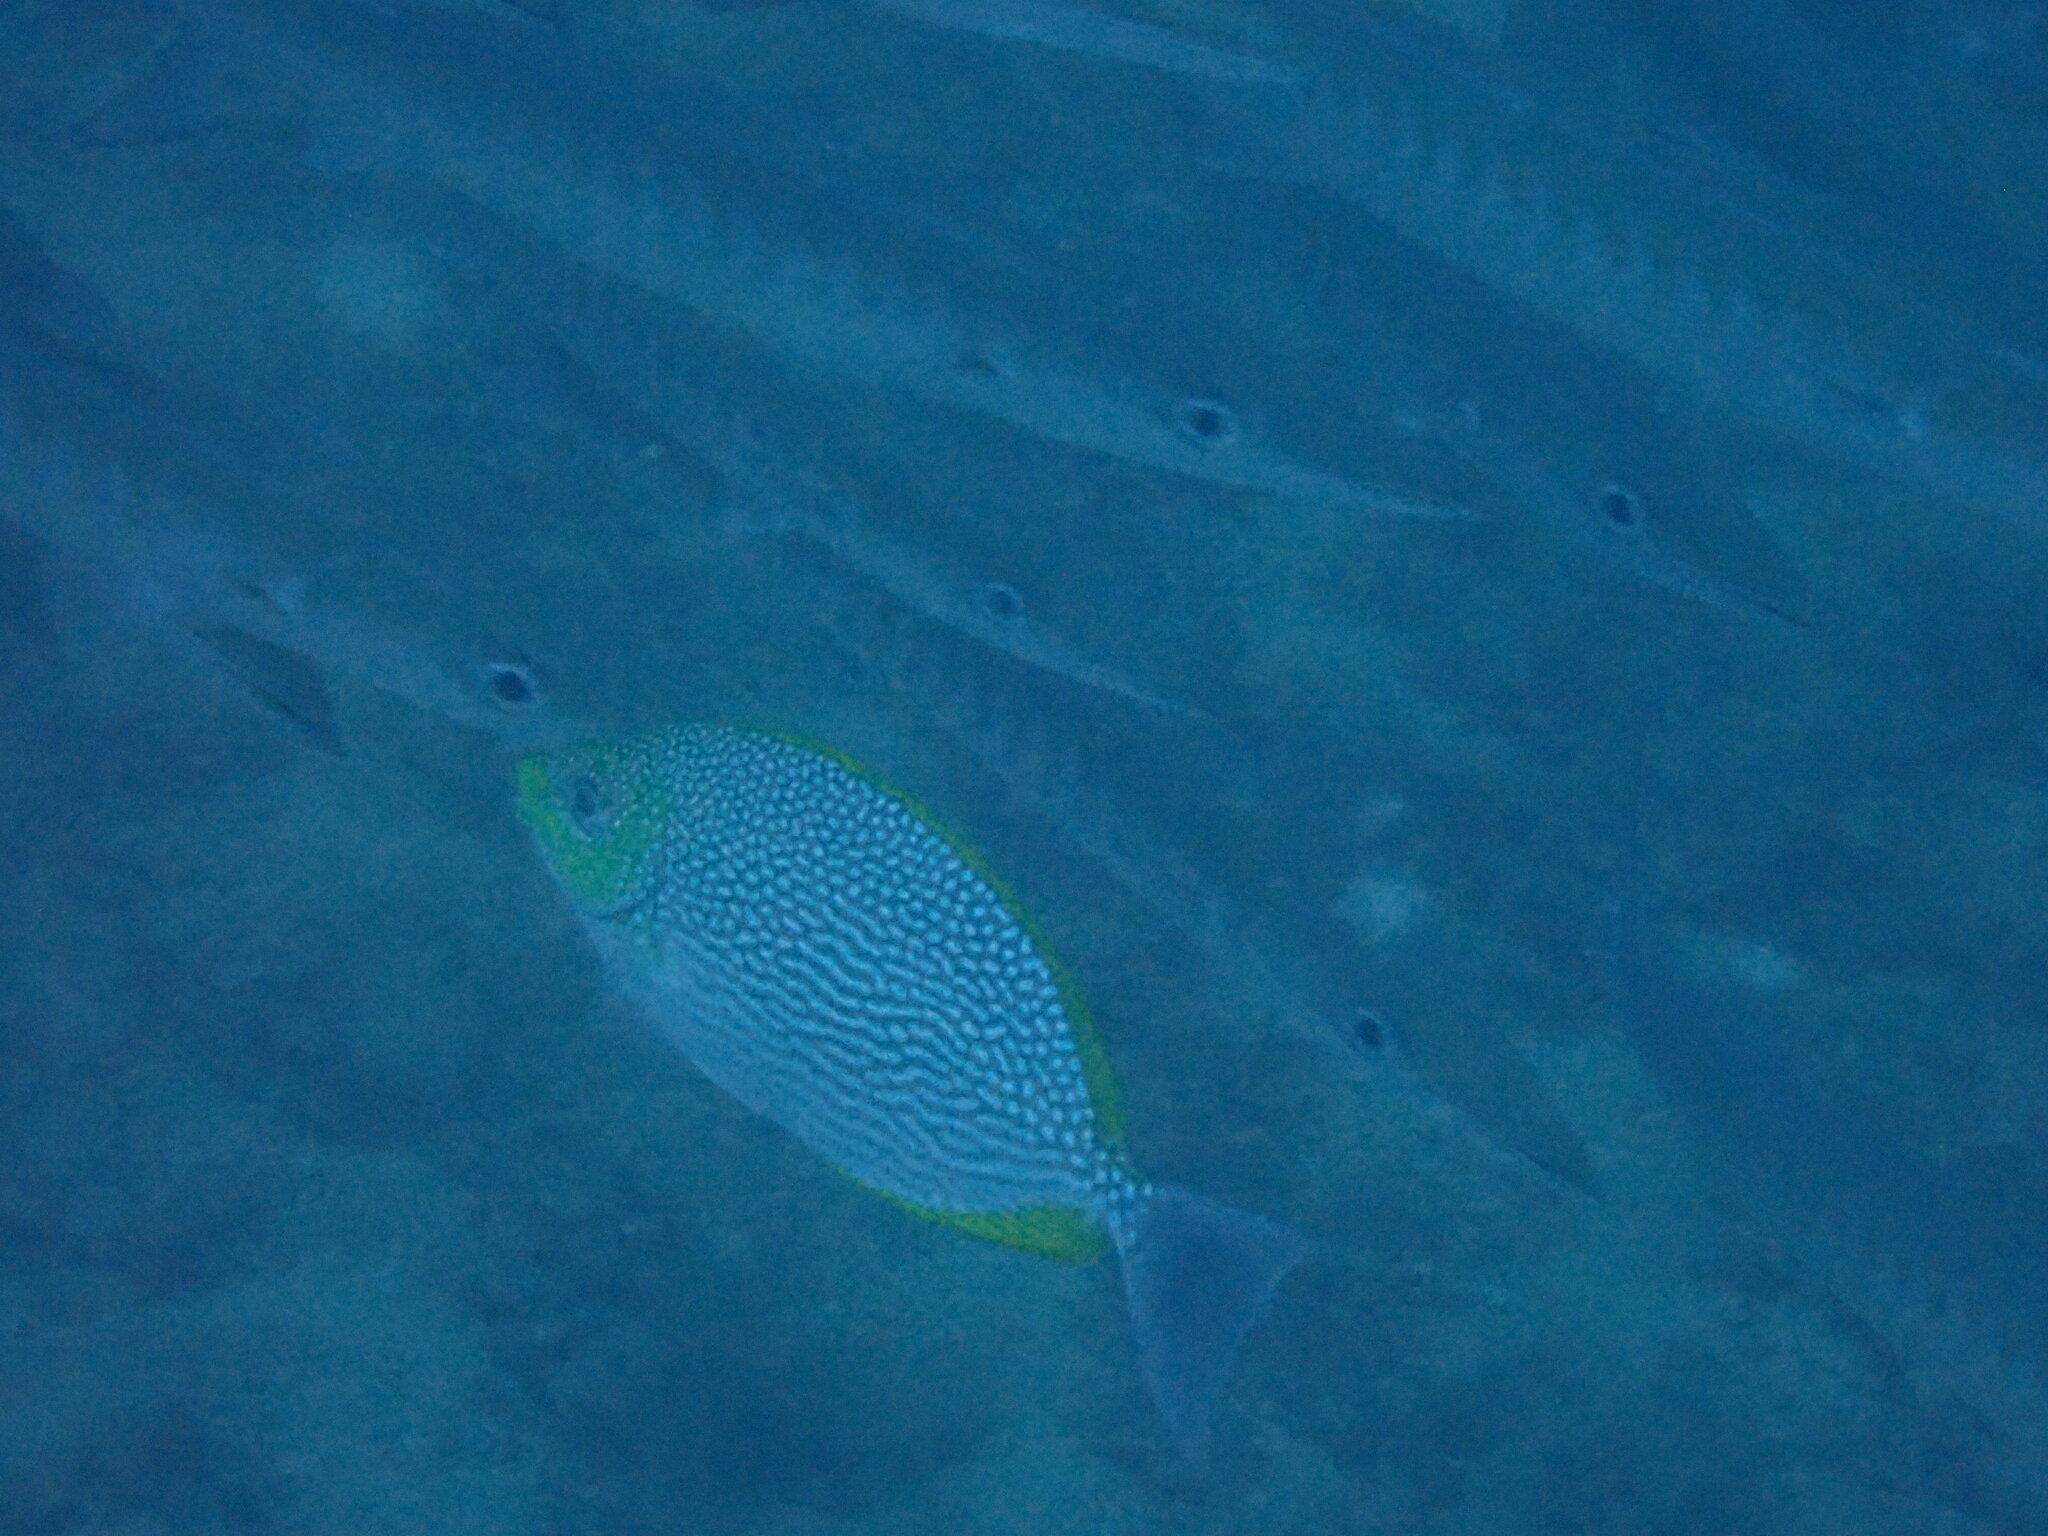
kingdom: Animalia
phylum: Chordata
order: Perciformes
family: Siganidae
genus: Siganus
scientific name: Siganus javus
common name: Java rabbitfish
